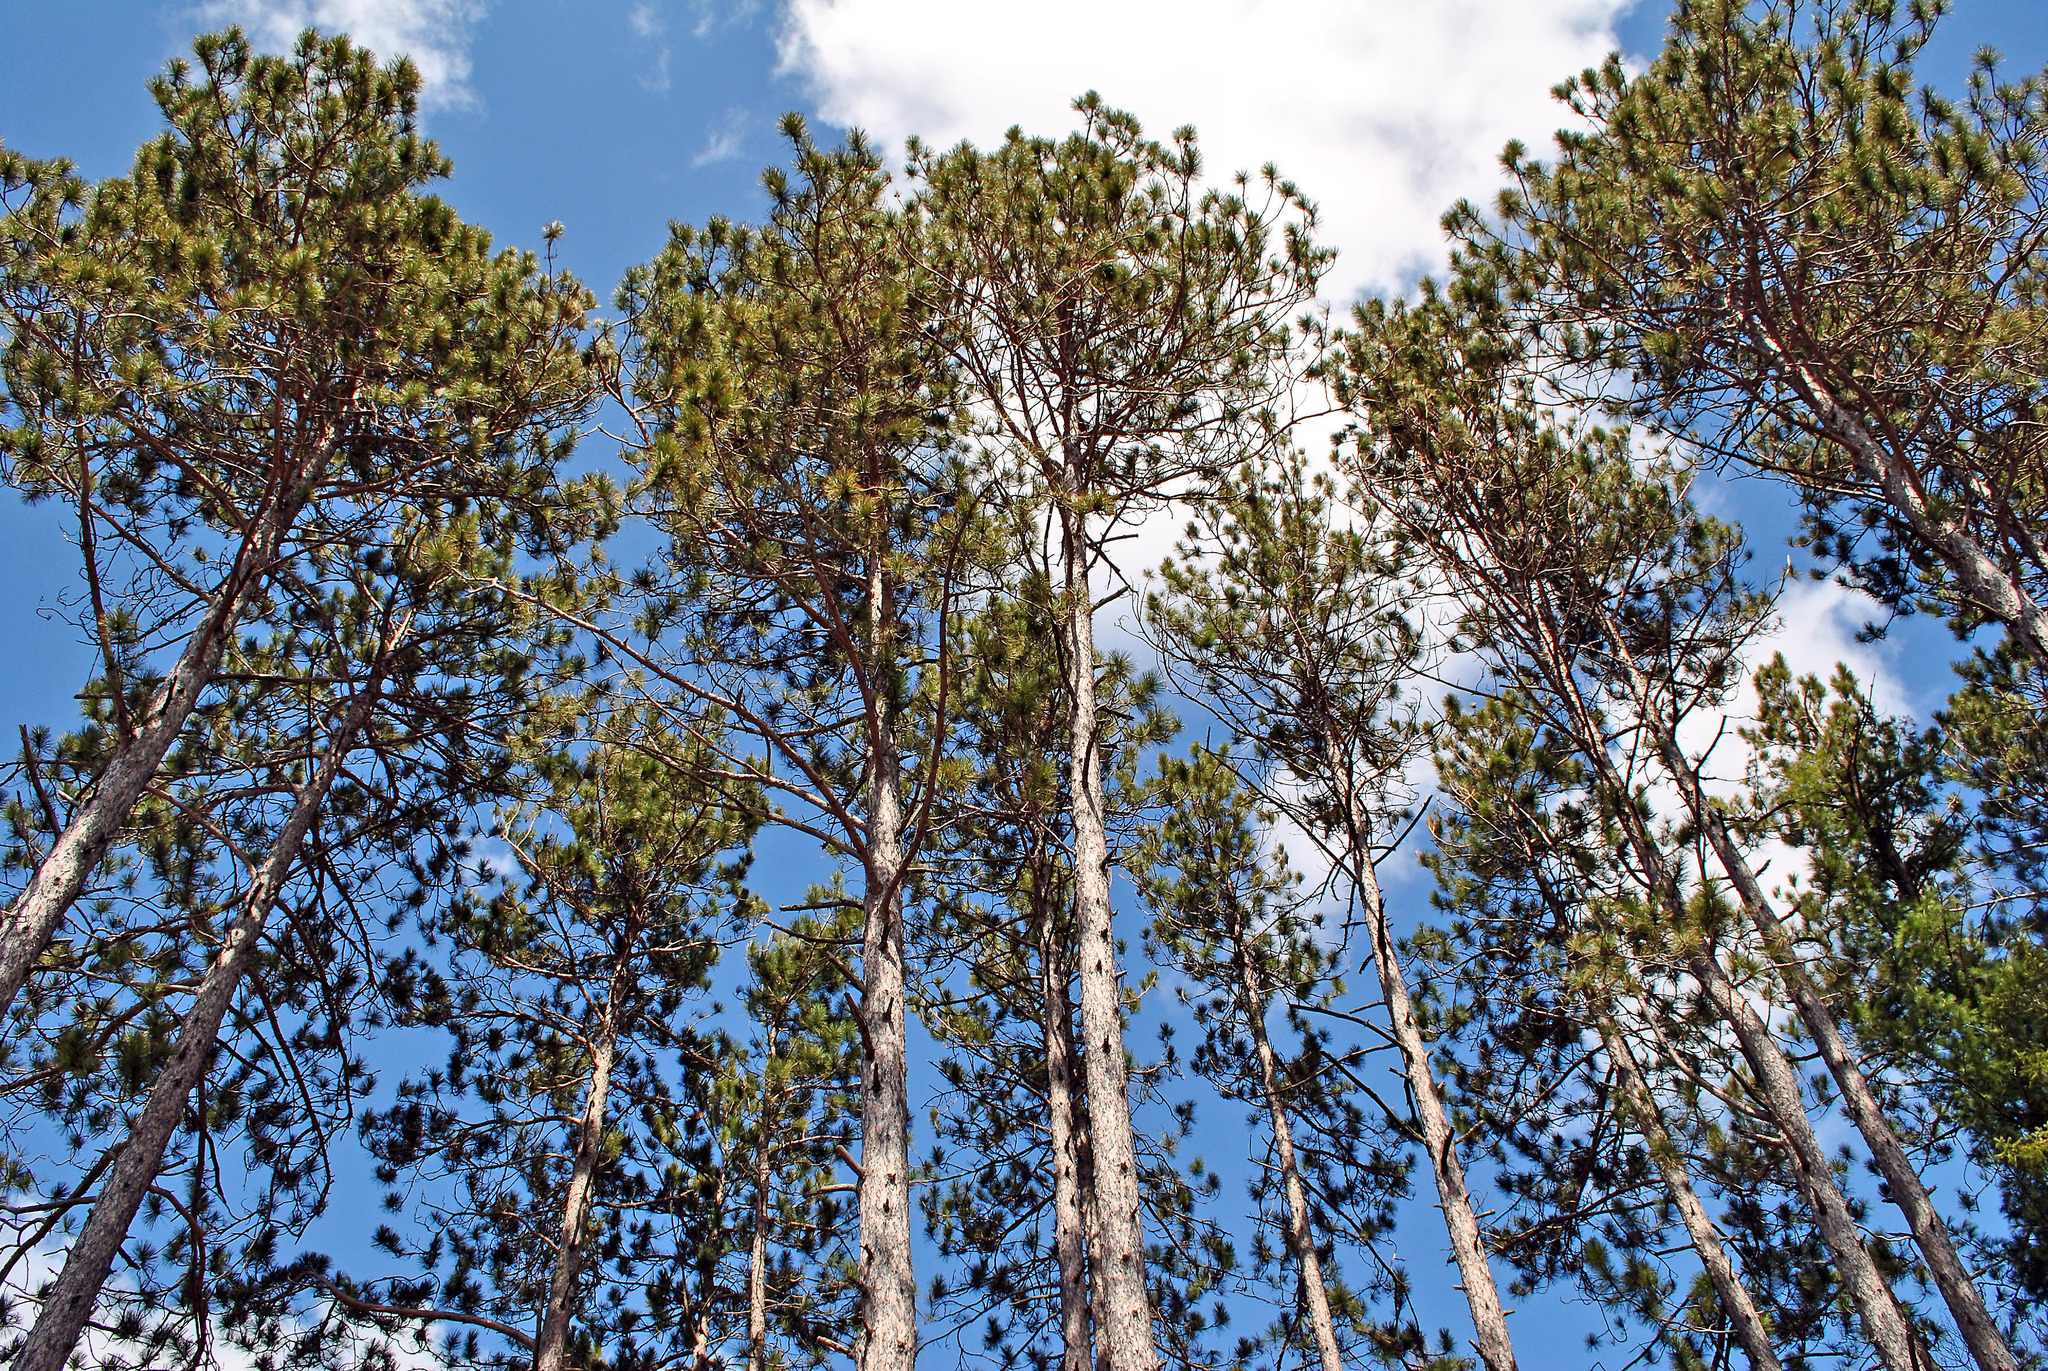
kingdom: Plantae
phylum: Tracheophyta
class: Pinopsida
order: Pinales
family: Pinaceae
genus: Pinus
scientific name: Pinus resinosa
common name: Norway pine
